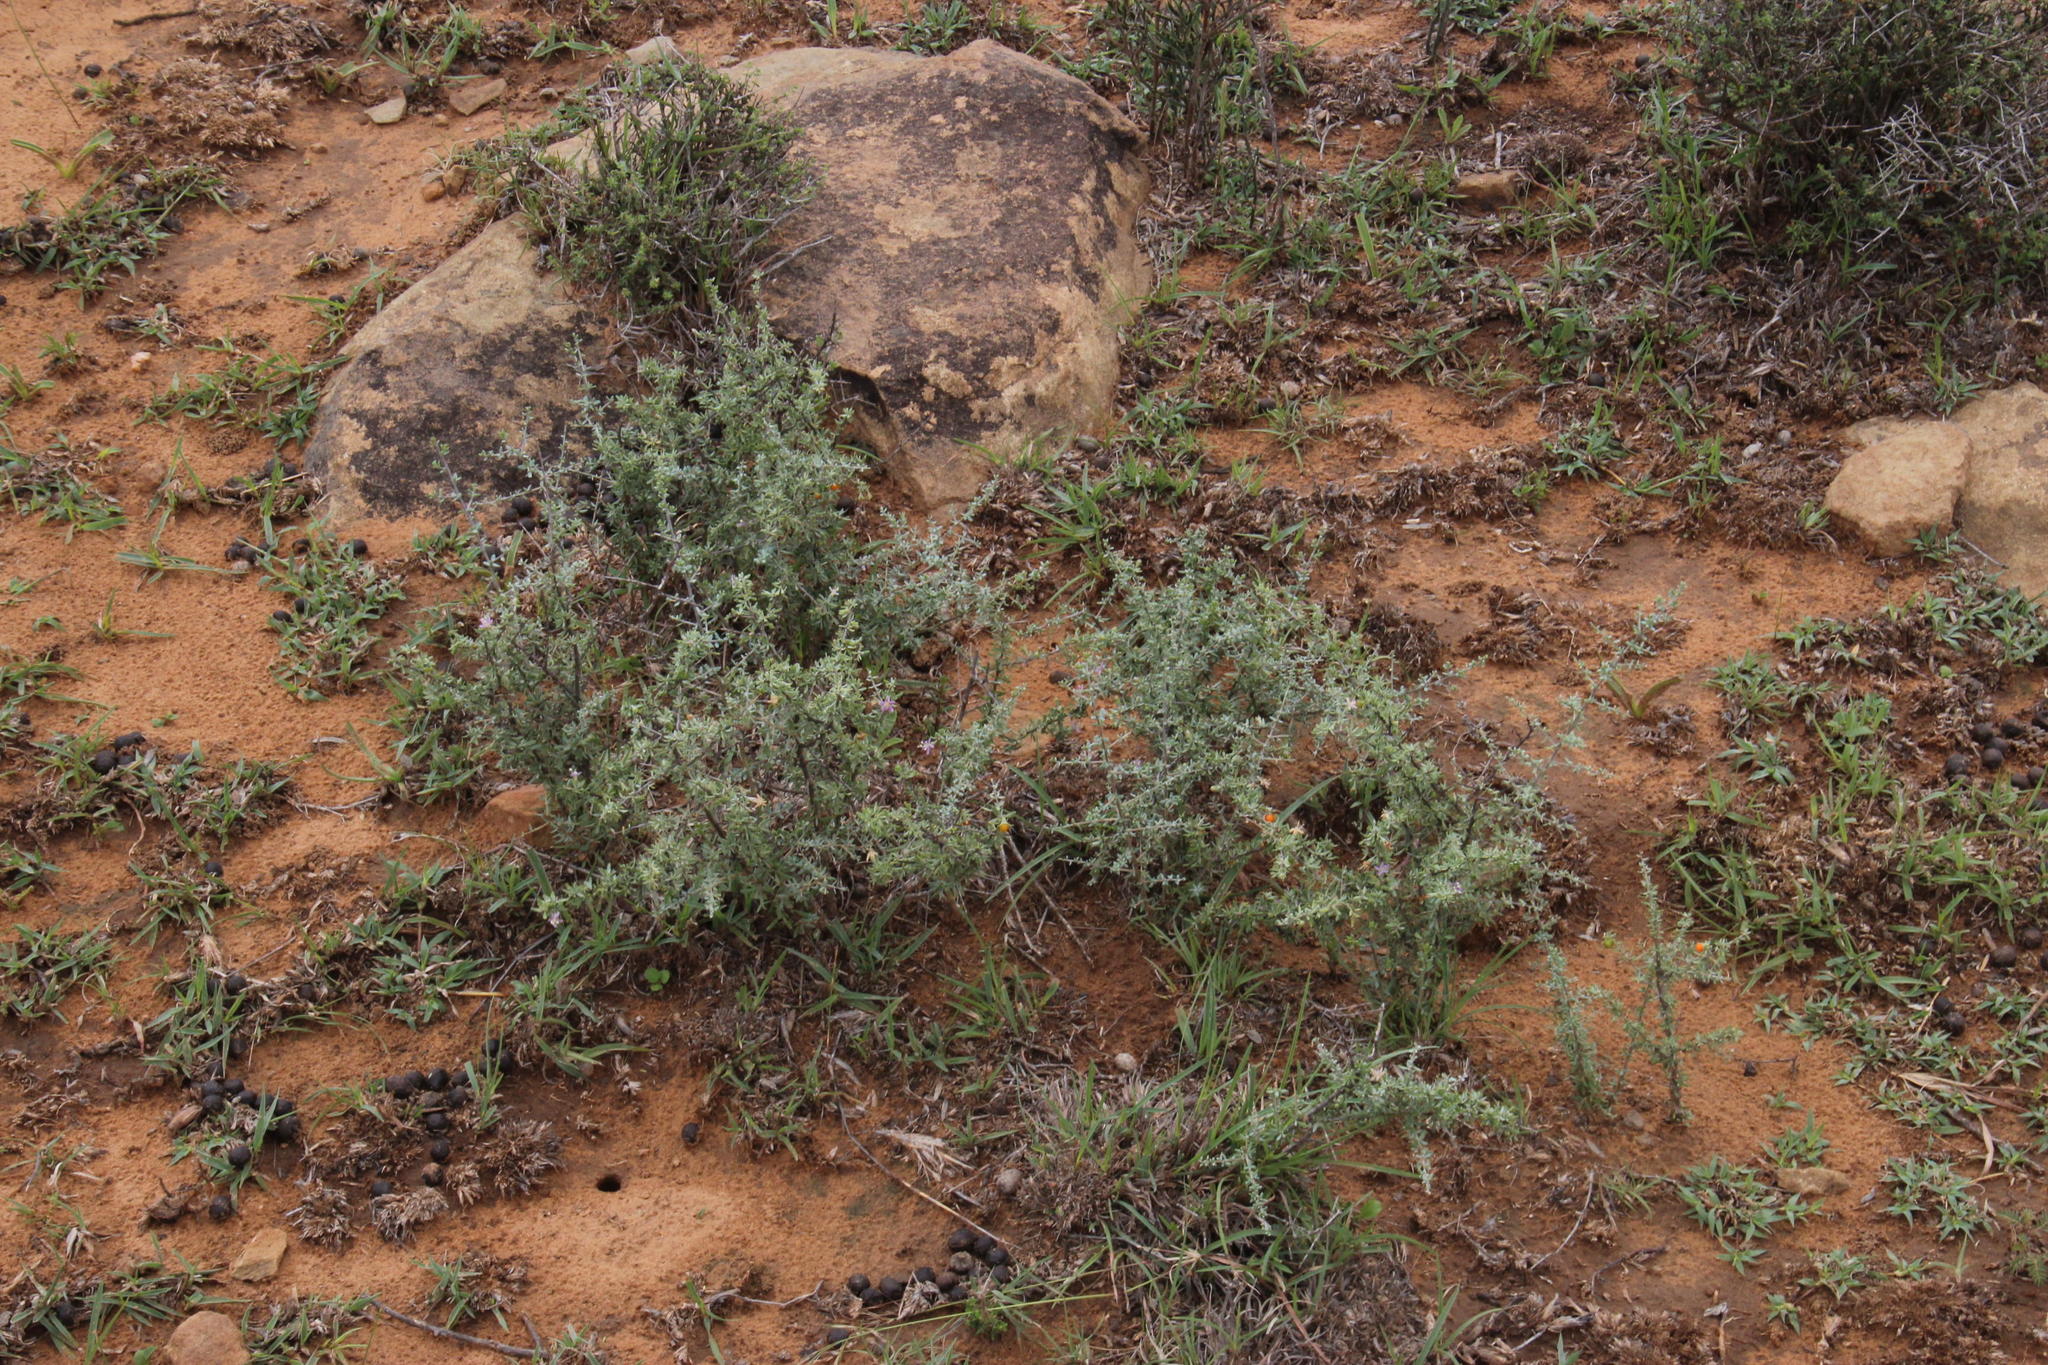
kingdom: Plantae
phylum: Tracheophyta
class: Magnoliopsida
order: Solanales
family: Solanaceae
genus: Lycium
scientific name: Lycium schizocalyx
